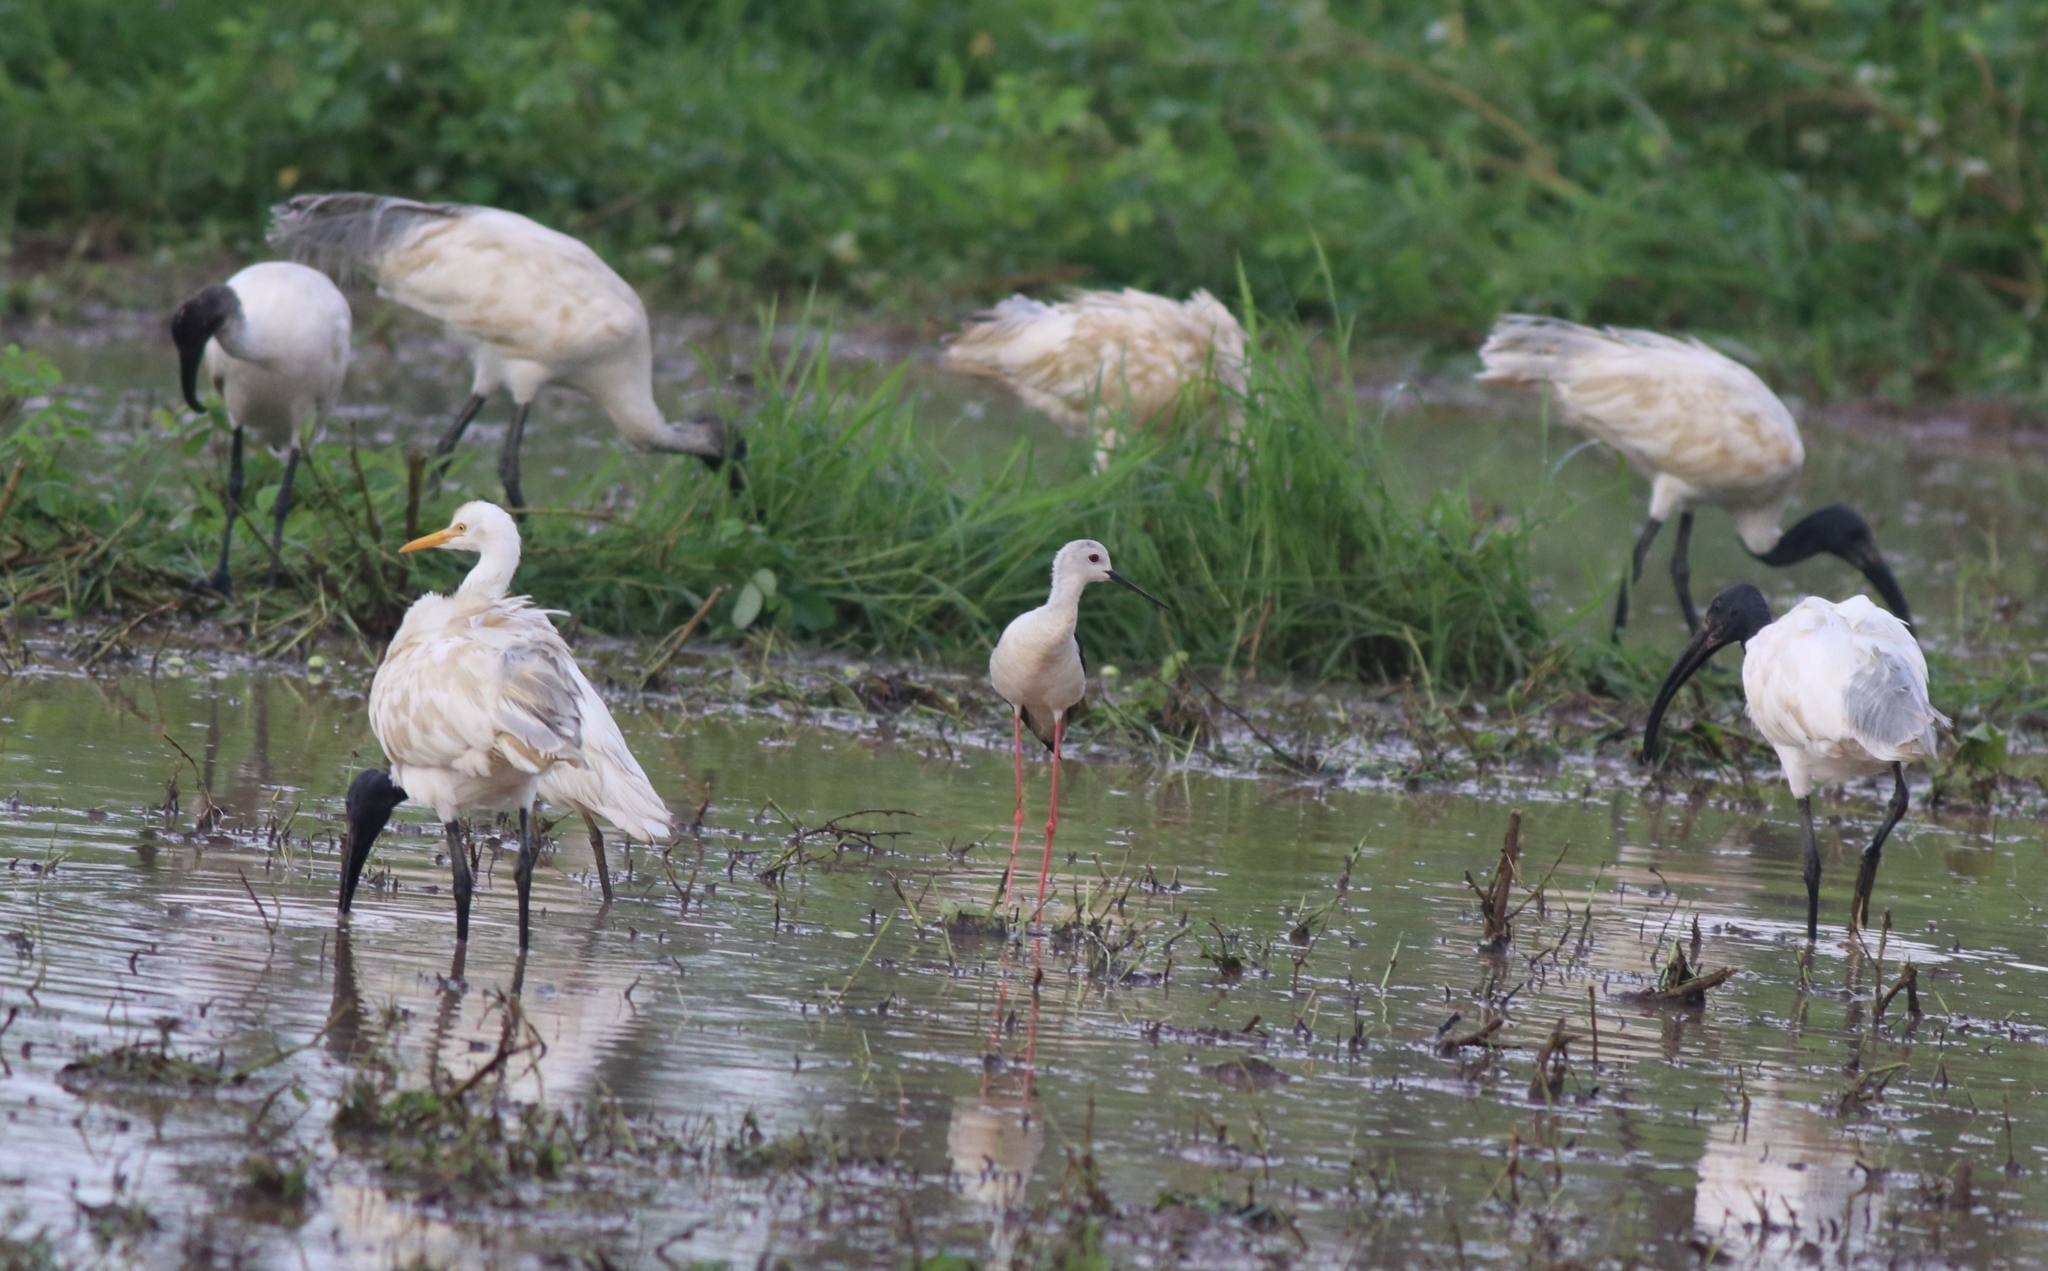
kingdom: Animalia
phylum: Chordata
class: Aves
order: Pelecaniformes
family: Threskiornithidae
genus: Threskiornis
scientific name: Threskiornis melanocephalus
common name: Black-headed ibis
